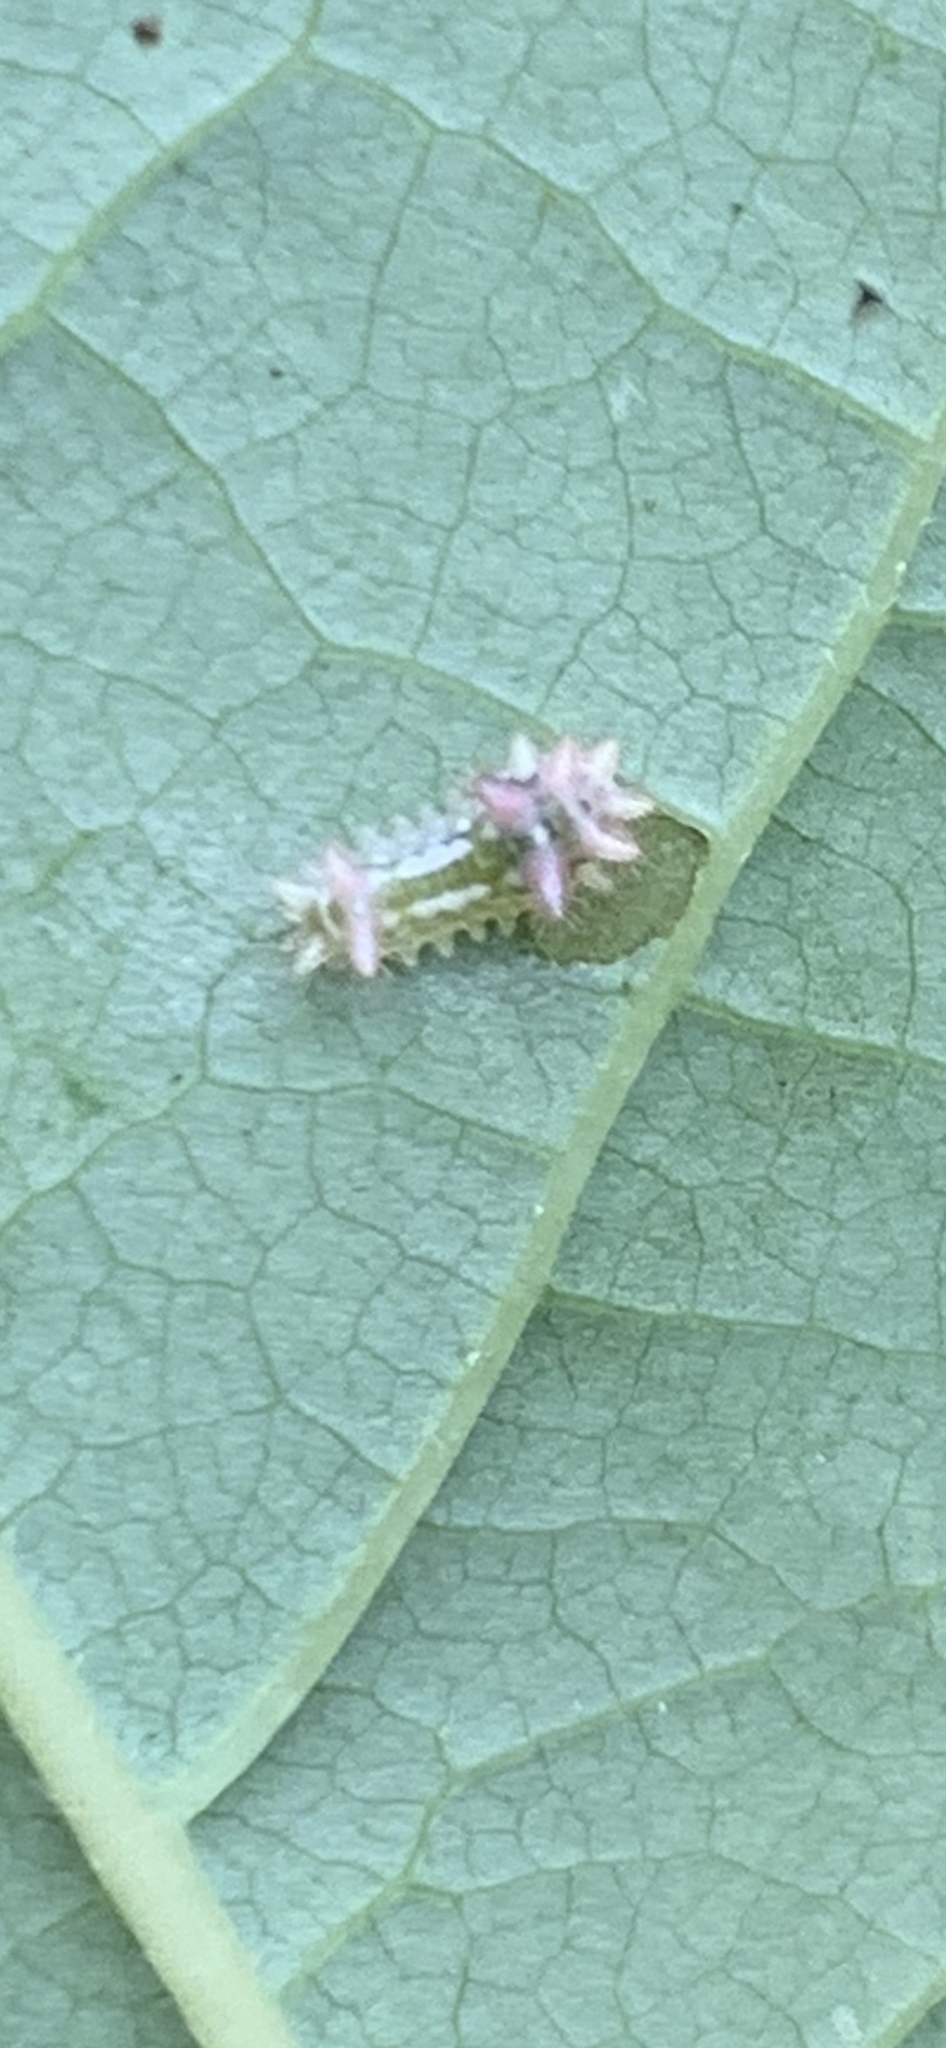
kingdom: Animalia
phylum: Arthropoda
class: Insecta
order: Lepidoptera
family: Limacodidae
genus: Acharia
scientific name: Acharia stimulea
